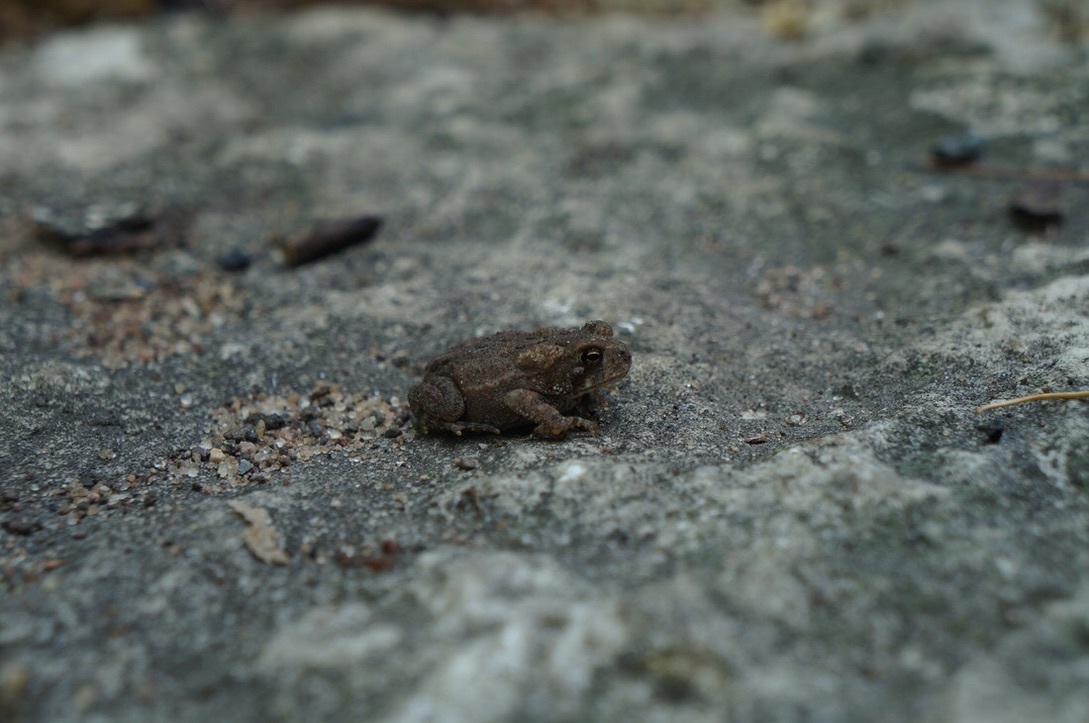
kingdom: Animalia
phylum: Chordata
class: Amphibia
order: Anura
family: Bufonidae
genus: Anaxyrus
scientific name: Anaxyrus americanus
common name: American toad
